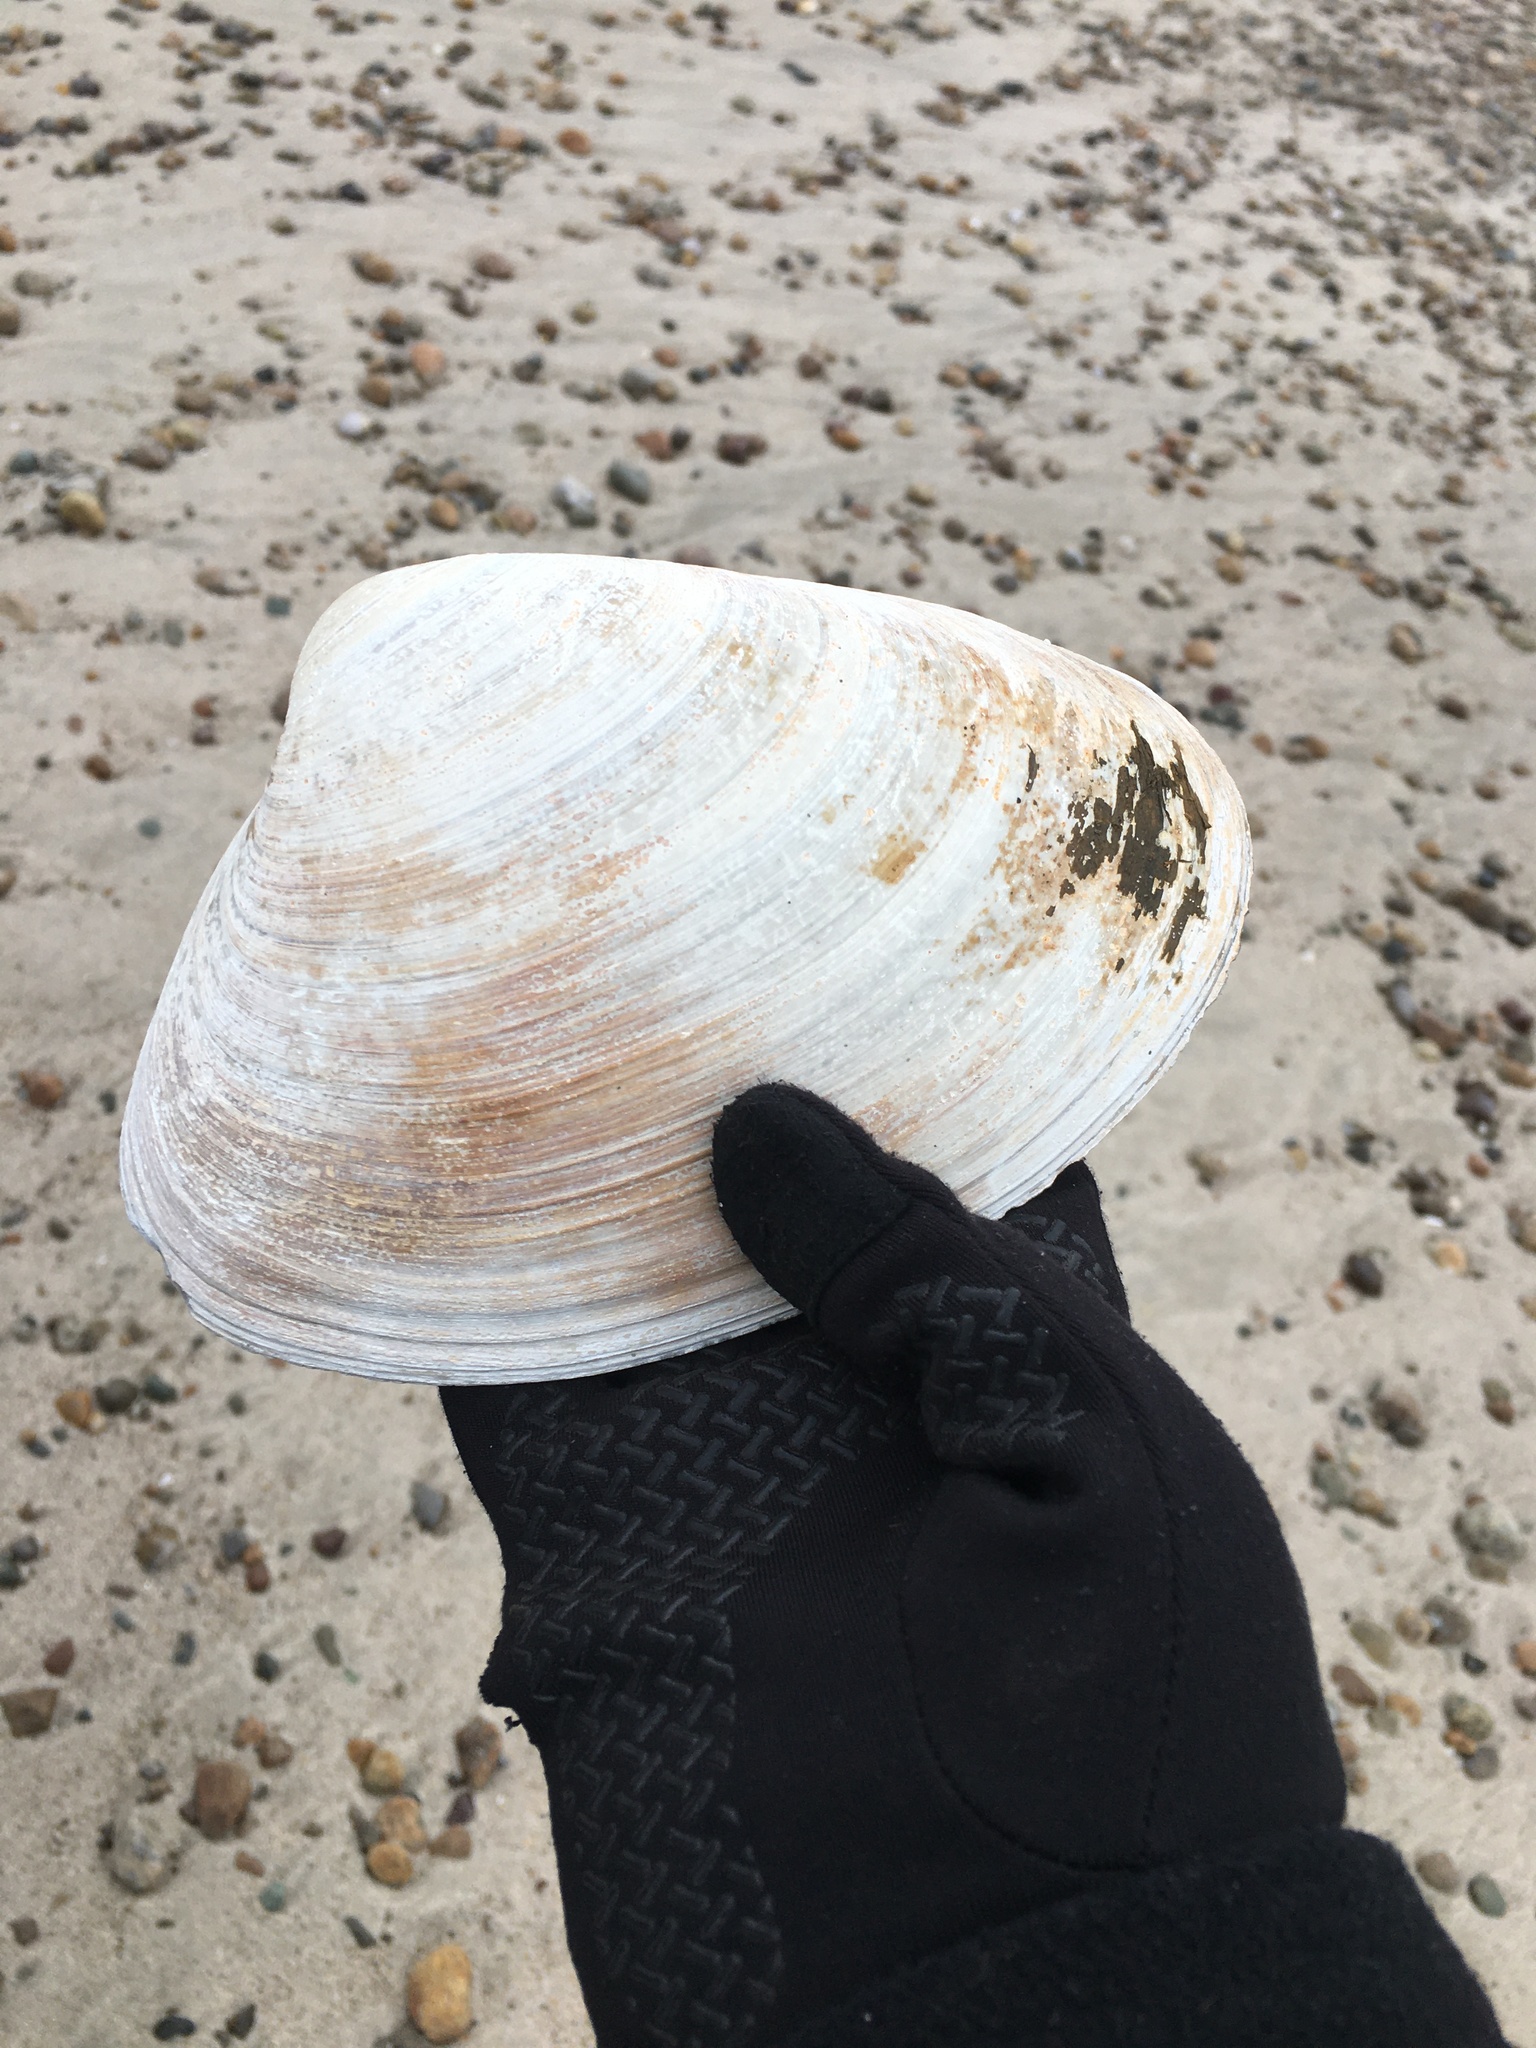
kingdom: Animalia
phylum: Mollusca
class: Bivalvia
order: Venerida
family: Mactridae
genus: Spisula
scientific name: Spisula solidissima
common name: Atlantic surf clam
